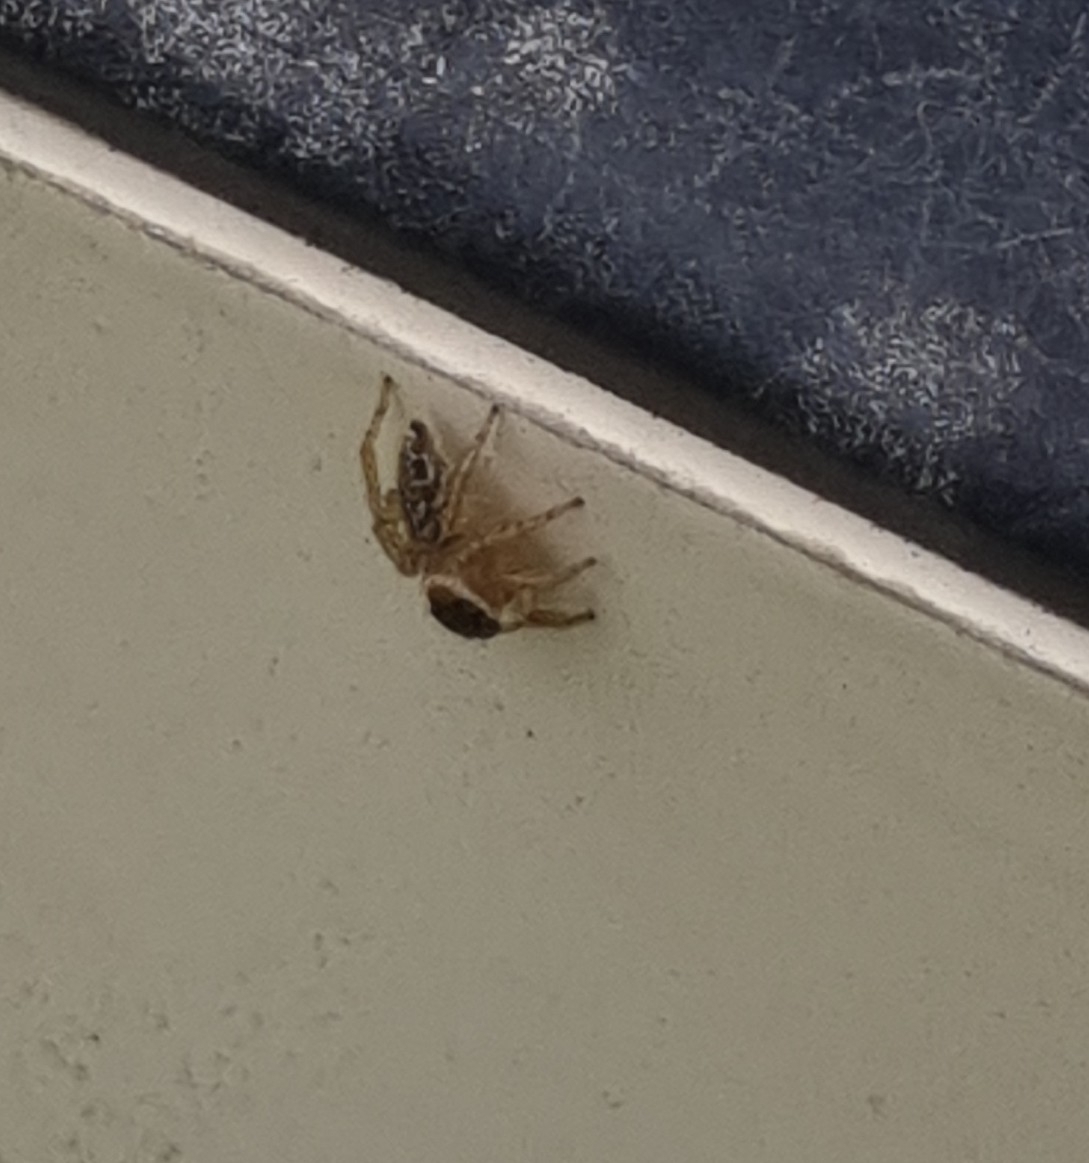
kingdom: Animalia
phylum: Arthropoda
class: Arachnida
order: Araneae
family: Salticidae
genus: Maratus
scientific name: Maratus griseus
